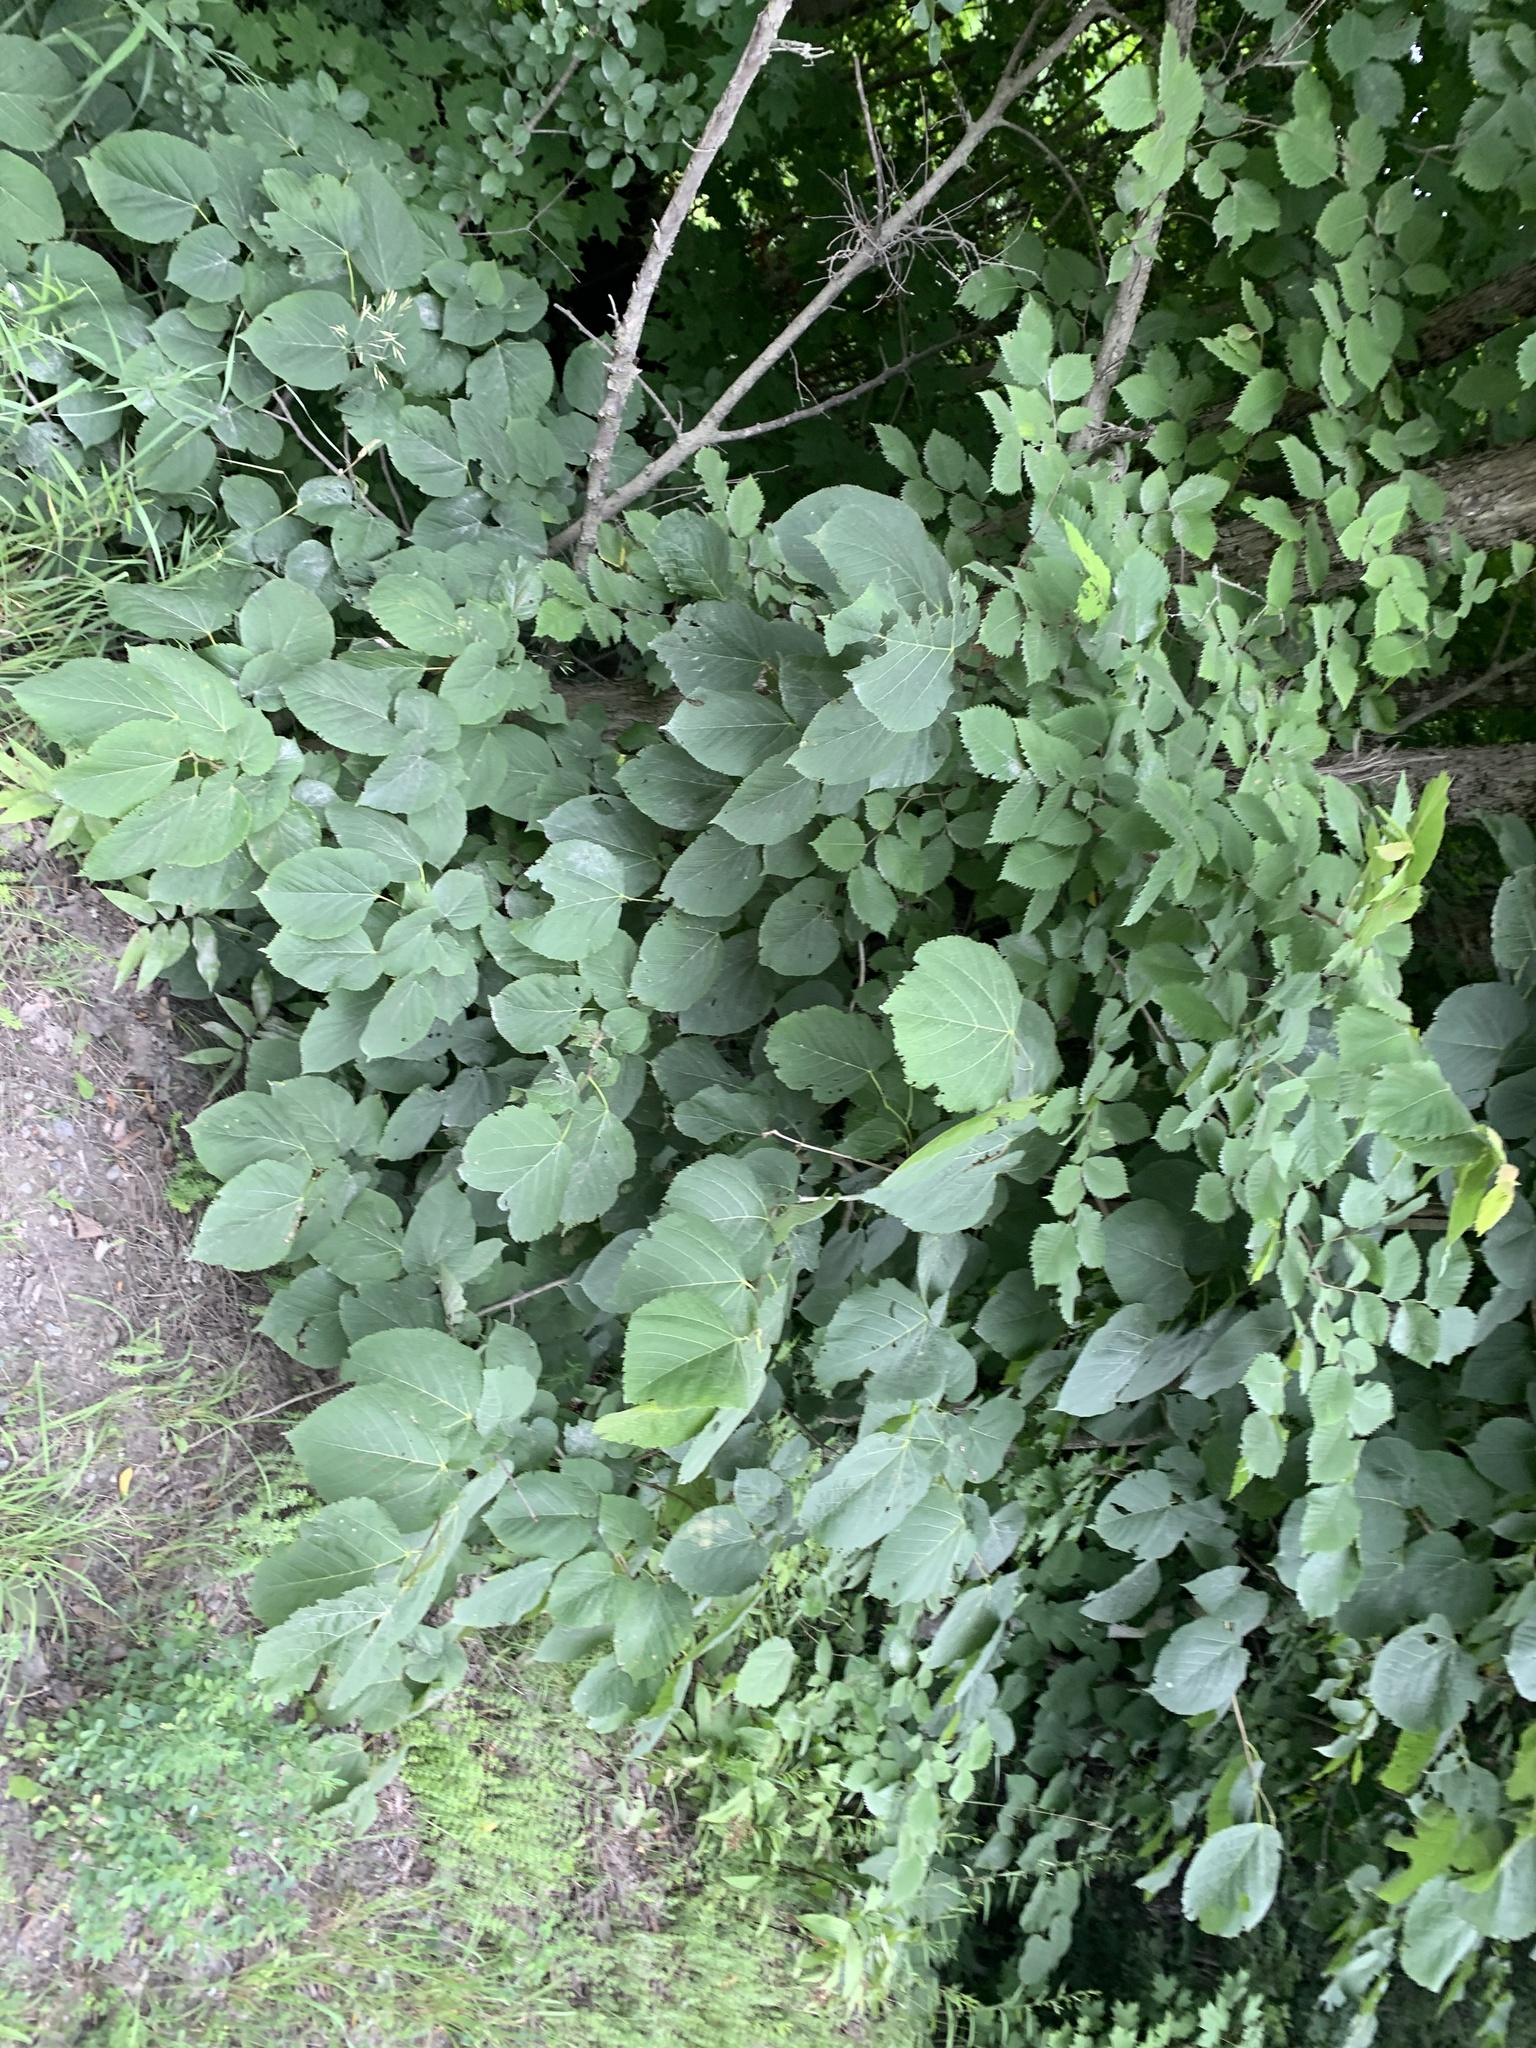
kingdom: Plantae
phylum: Tracheophyta
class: Magnoliopsida
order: Malvales
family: Malvaceae
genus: Tilia
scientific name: Tilia americana
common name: Basswood
